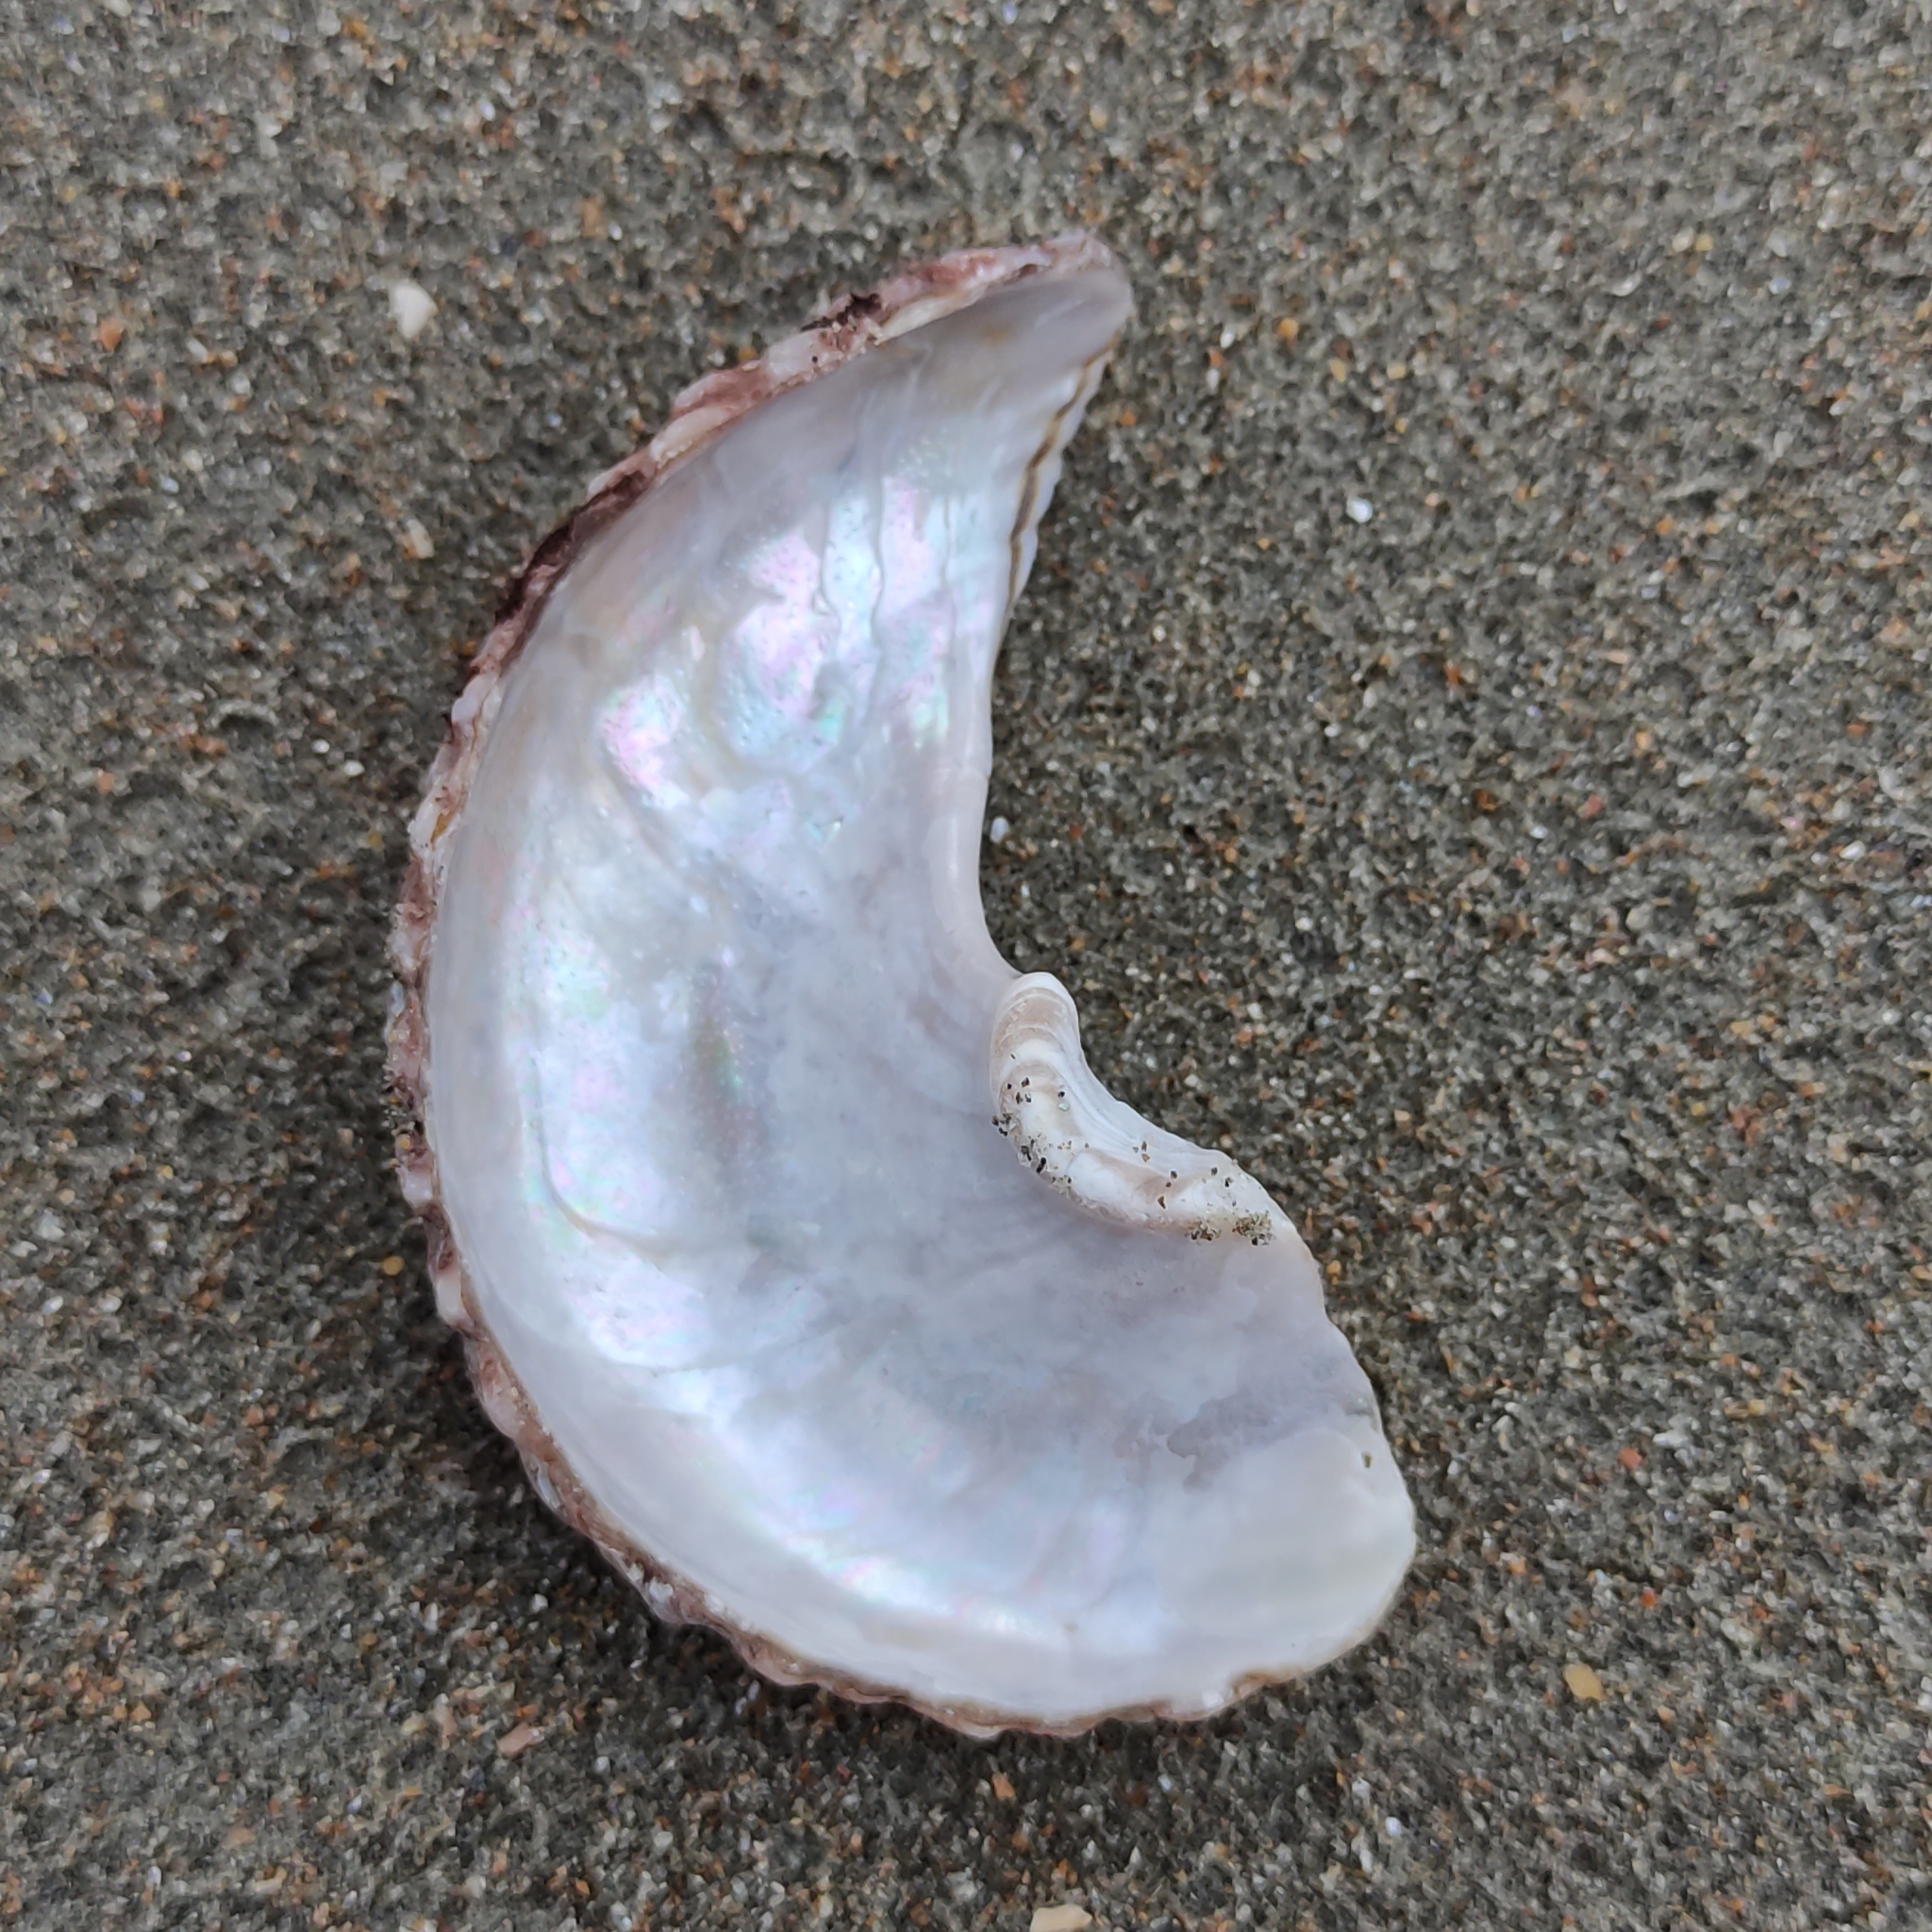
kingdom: Animalia
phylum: Mollusca
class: Gastropoda
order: Trochida
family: Turbinidae
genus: Cookia
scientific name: Cookia sulcata
